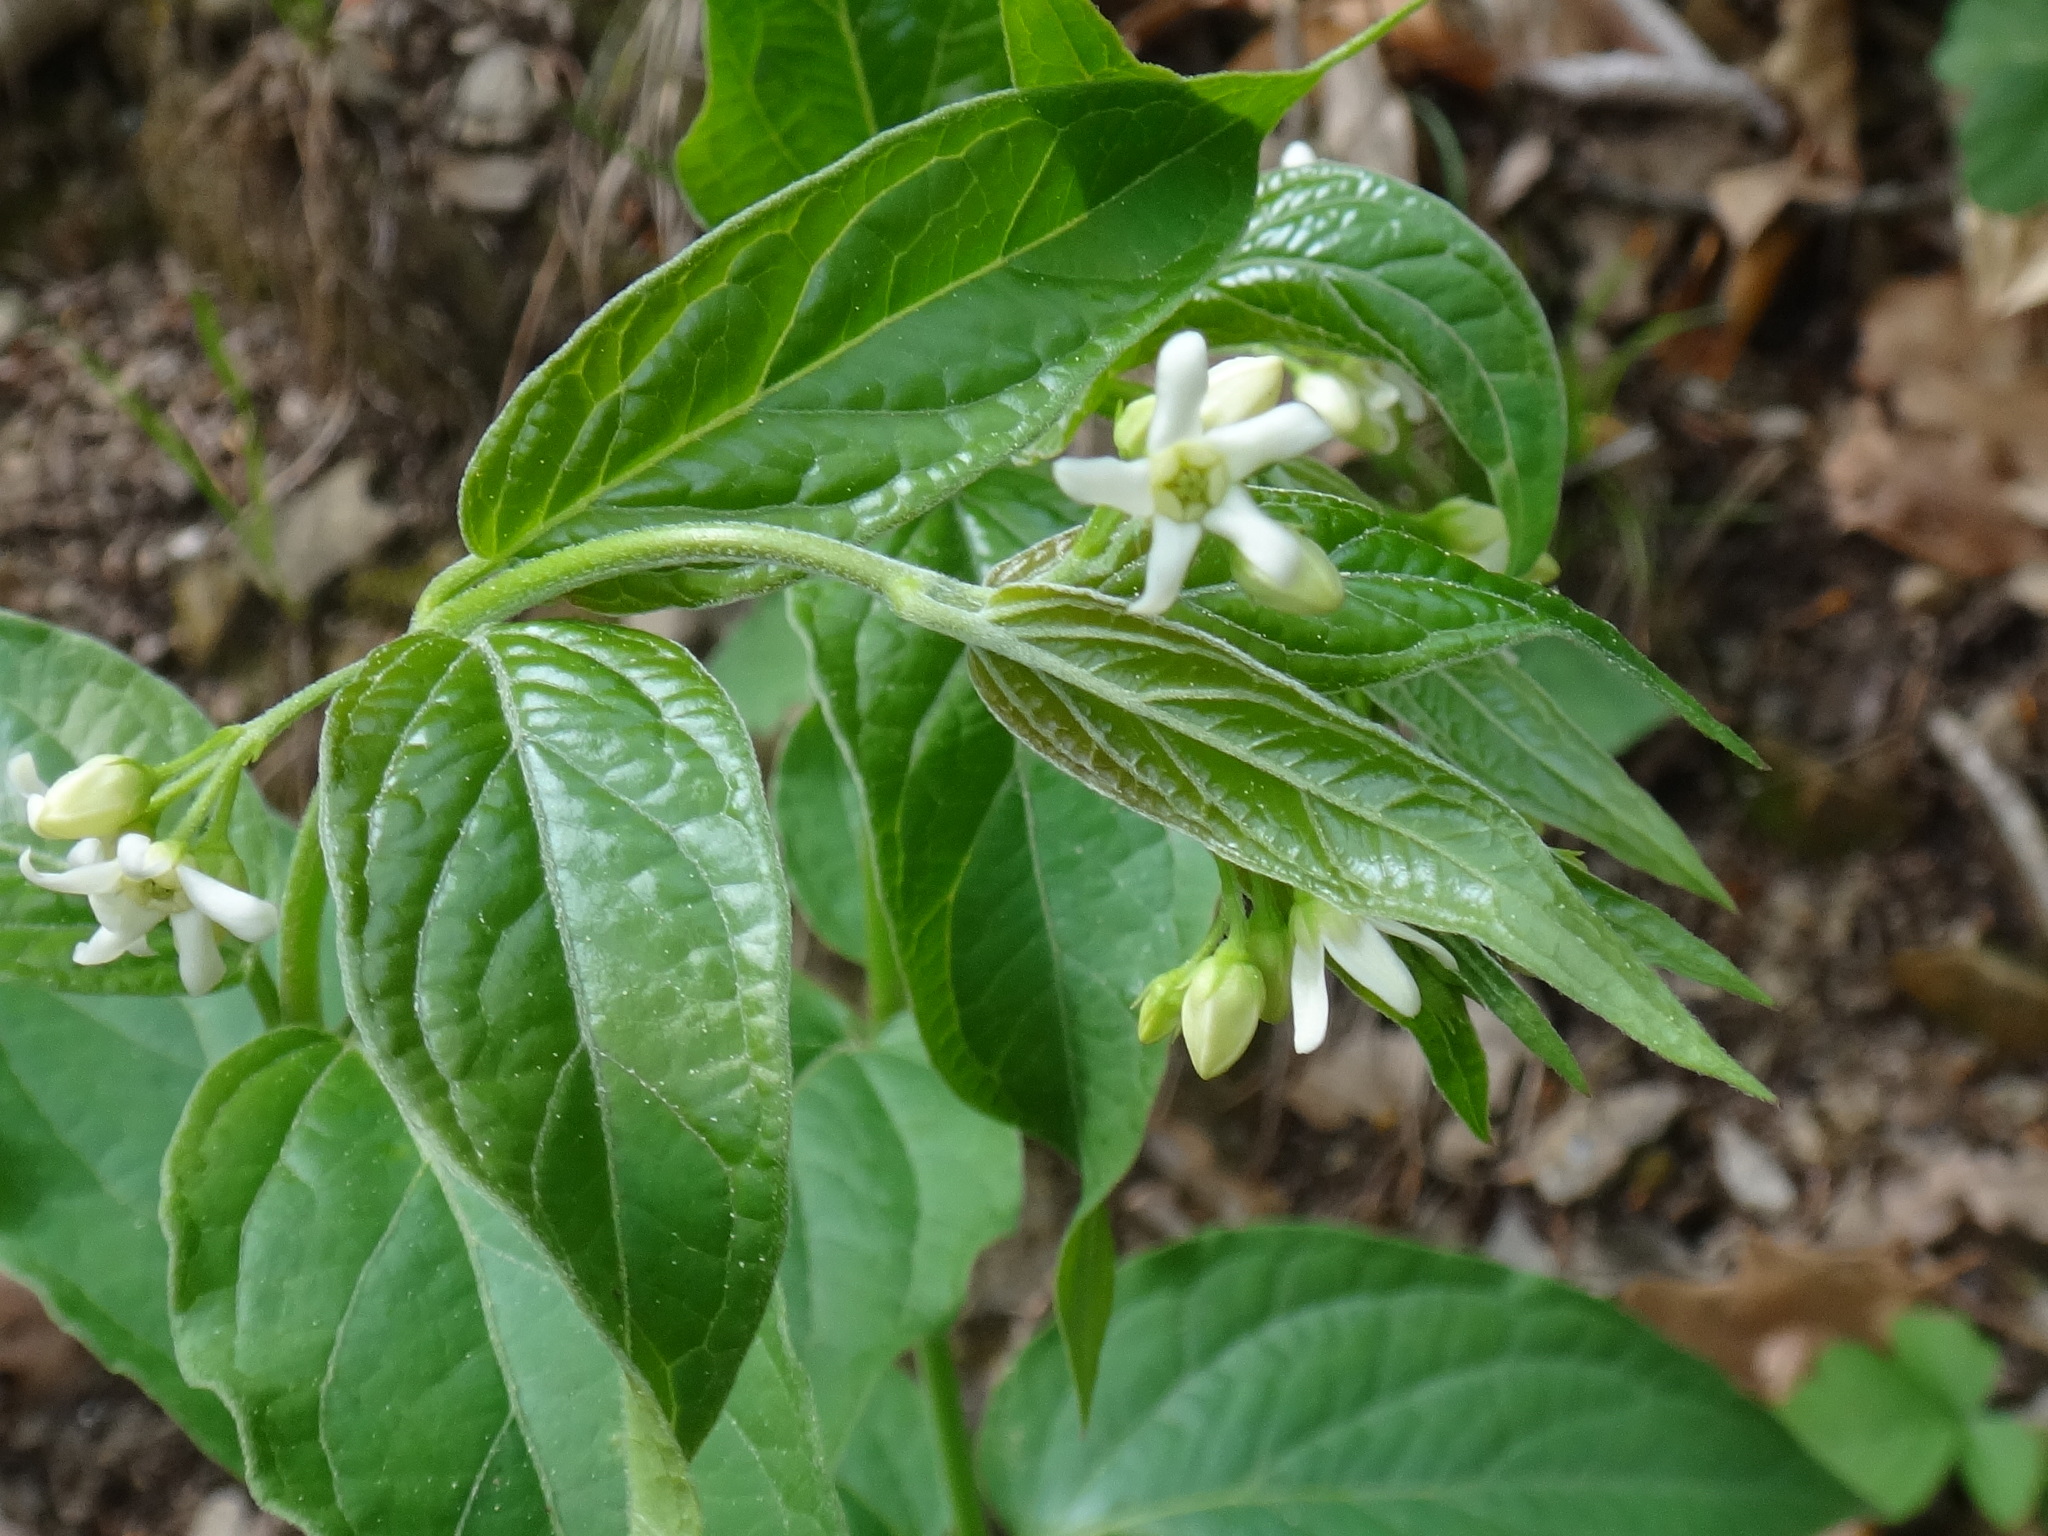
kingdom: Plantae
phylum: Tracheophyta
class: Magnoliopsida
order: Gentianales
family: Apocynaceae
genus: Vincetoxicum
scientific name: Vincetoxicum hirundinaria
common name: White swallowwort
